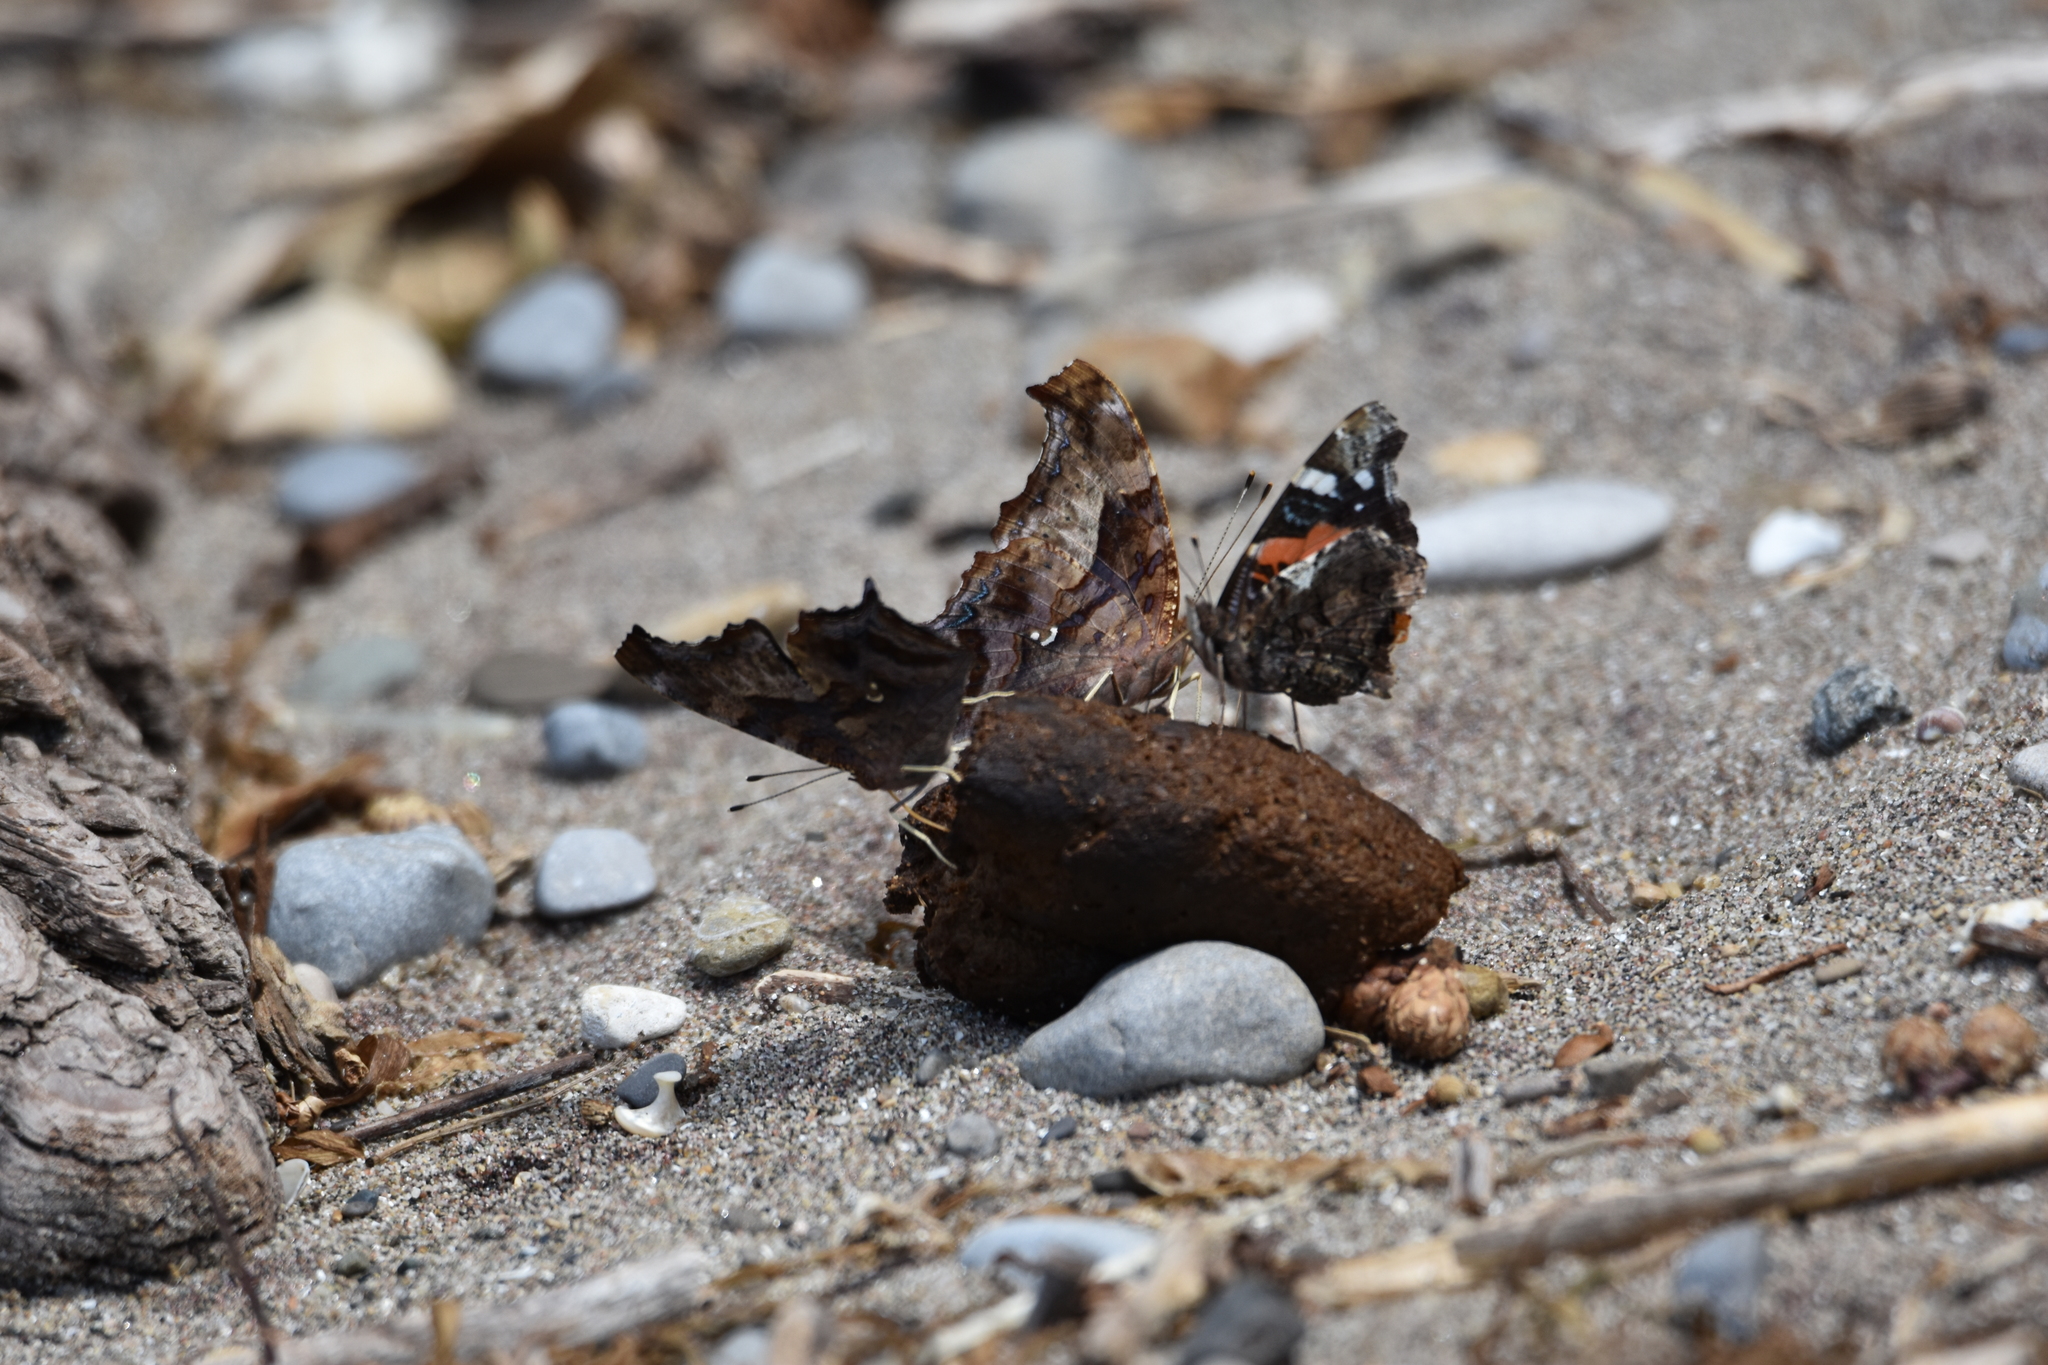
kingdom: Animalia
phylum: Arthropoda
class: Insecta
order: Lepidoptera
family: Nymphalidae
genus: Polygonia
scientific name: Polygonia interrogationis
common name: Question mark
